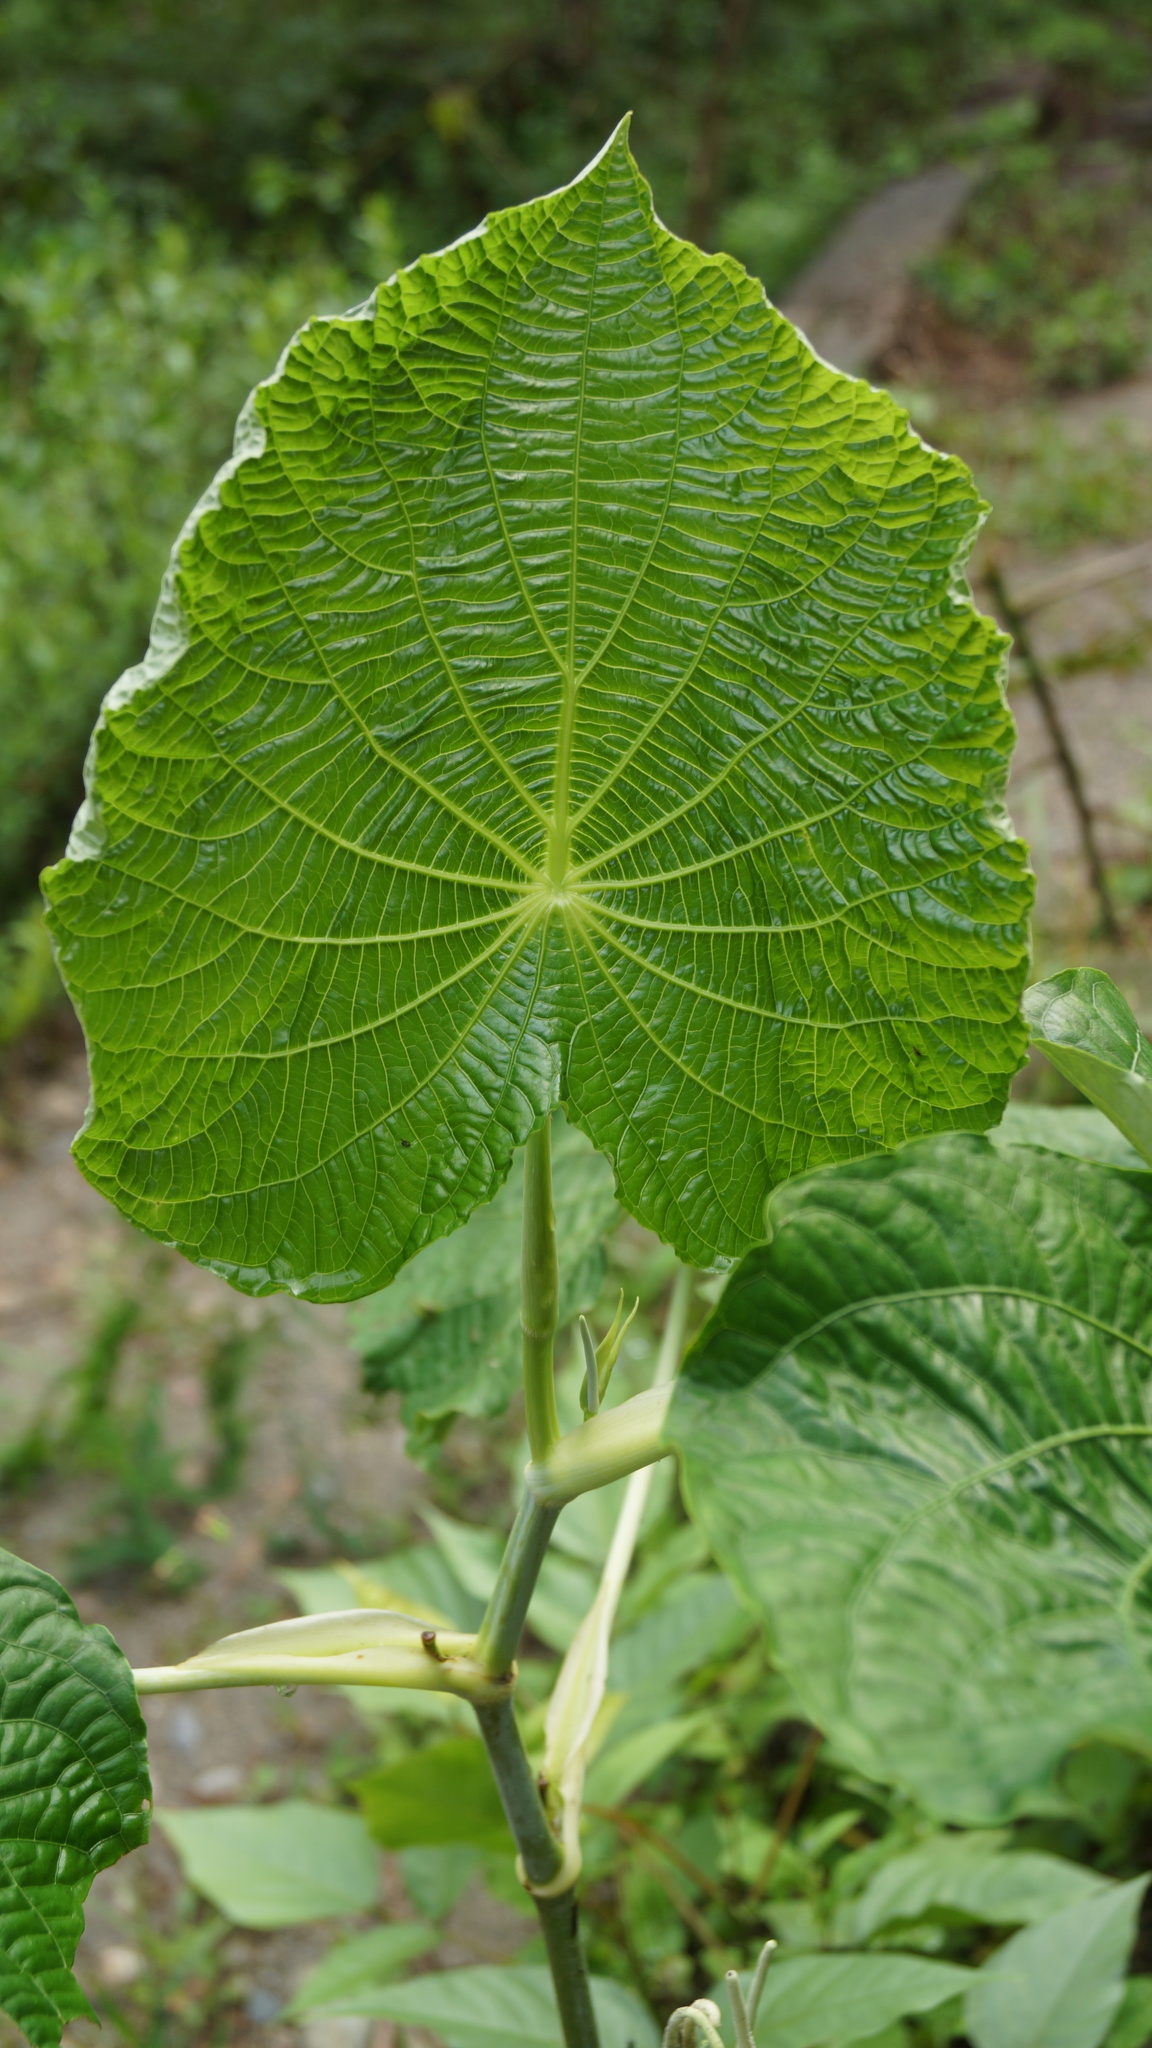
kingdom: Plantae
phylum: Tracheophyta
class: Magnoliopsida
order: Piperales
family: Piperaceae
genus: Piper
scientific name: Piper peltatum
